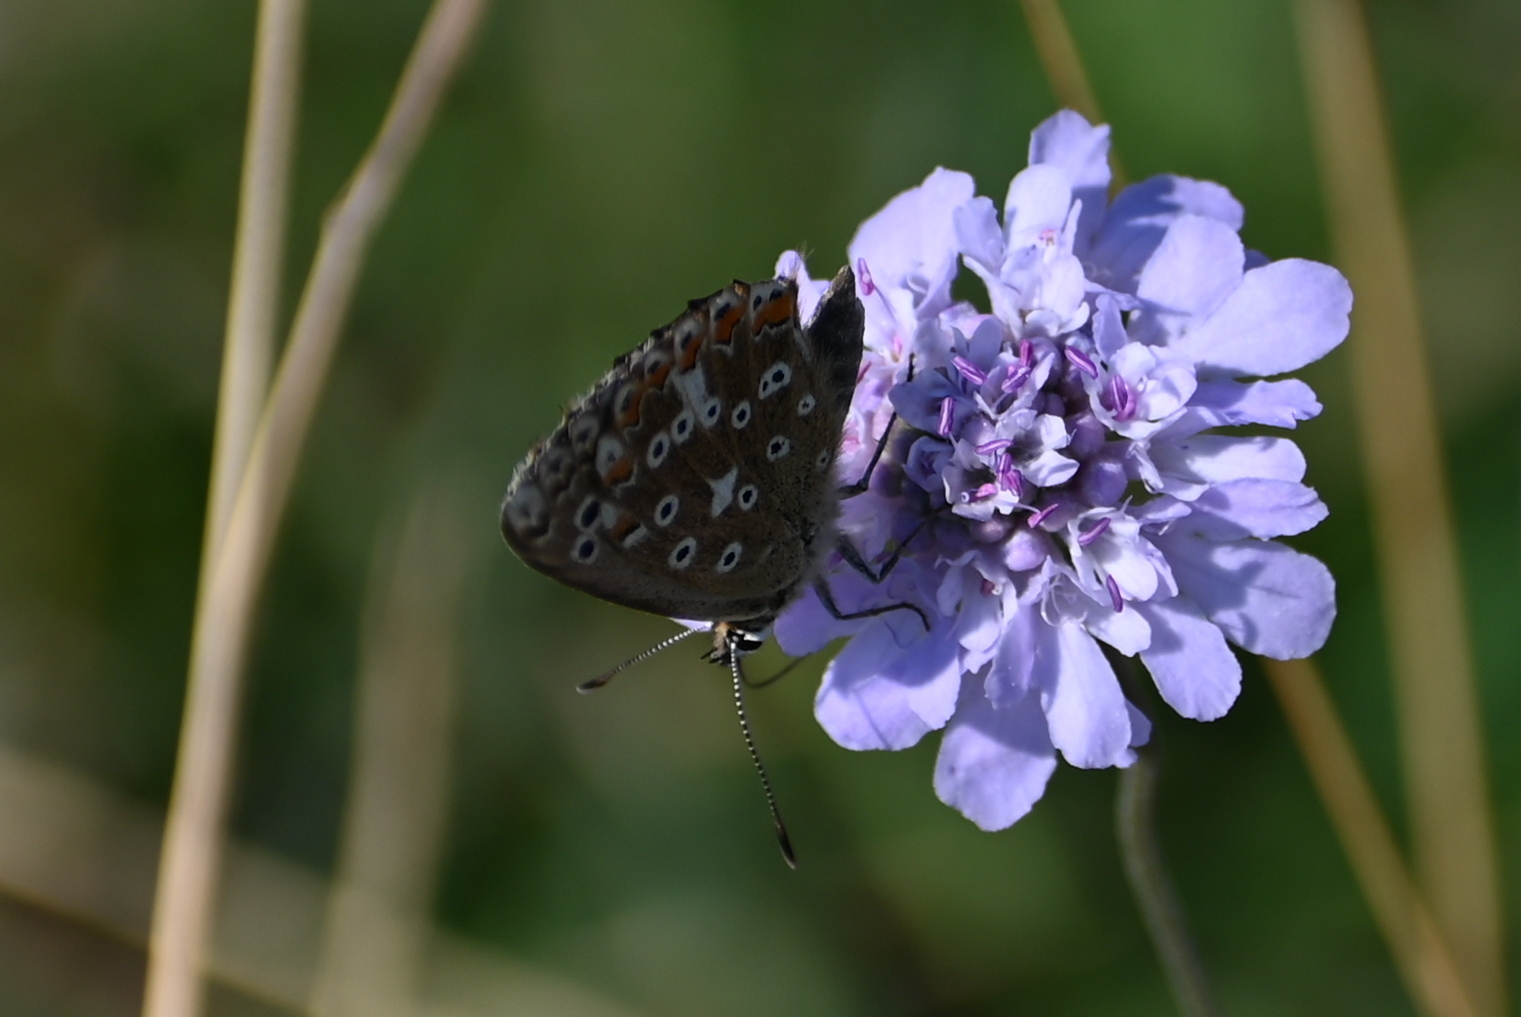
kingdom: Animalia
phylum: Arthropoda
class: Insecta
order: Lepidoptera
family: Lycaenidae
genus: Lysandra
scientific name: Lysandra coridon
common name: Chalkhill blue
